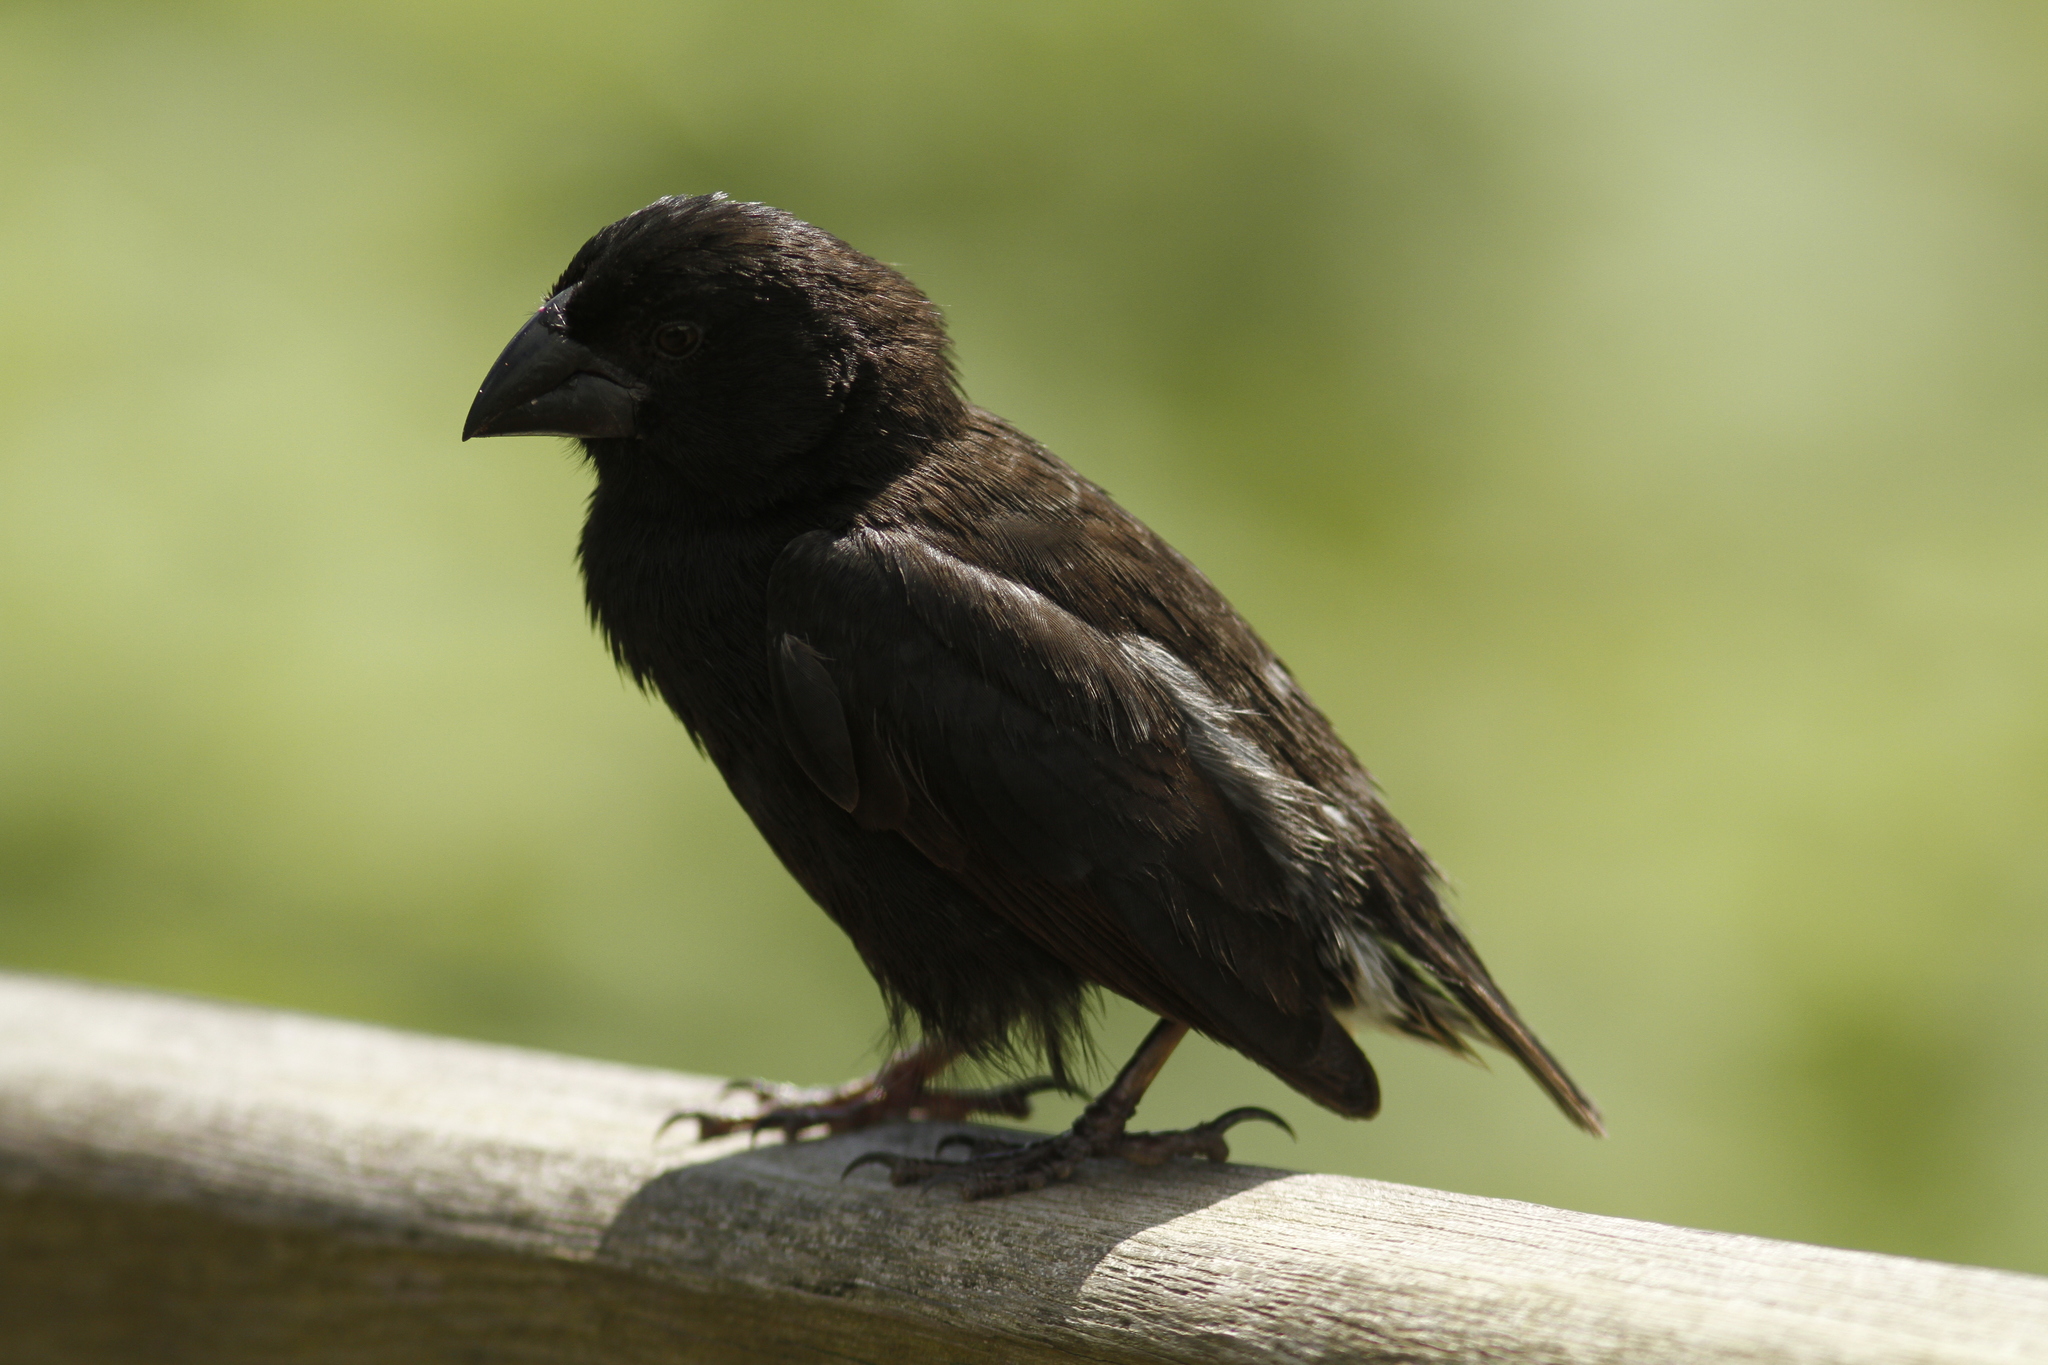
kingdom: Animalia
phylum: Chordata
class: Aves
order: Passeriformes
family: Thraupidae
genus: Geospiza
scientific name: Geospiza fortis
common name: Medium ground finch
